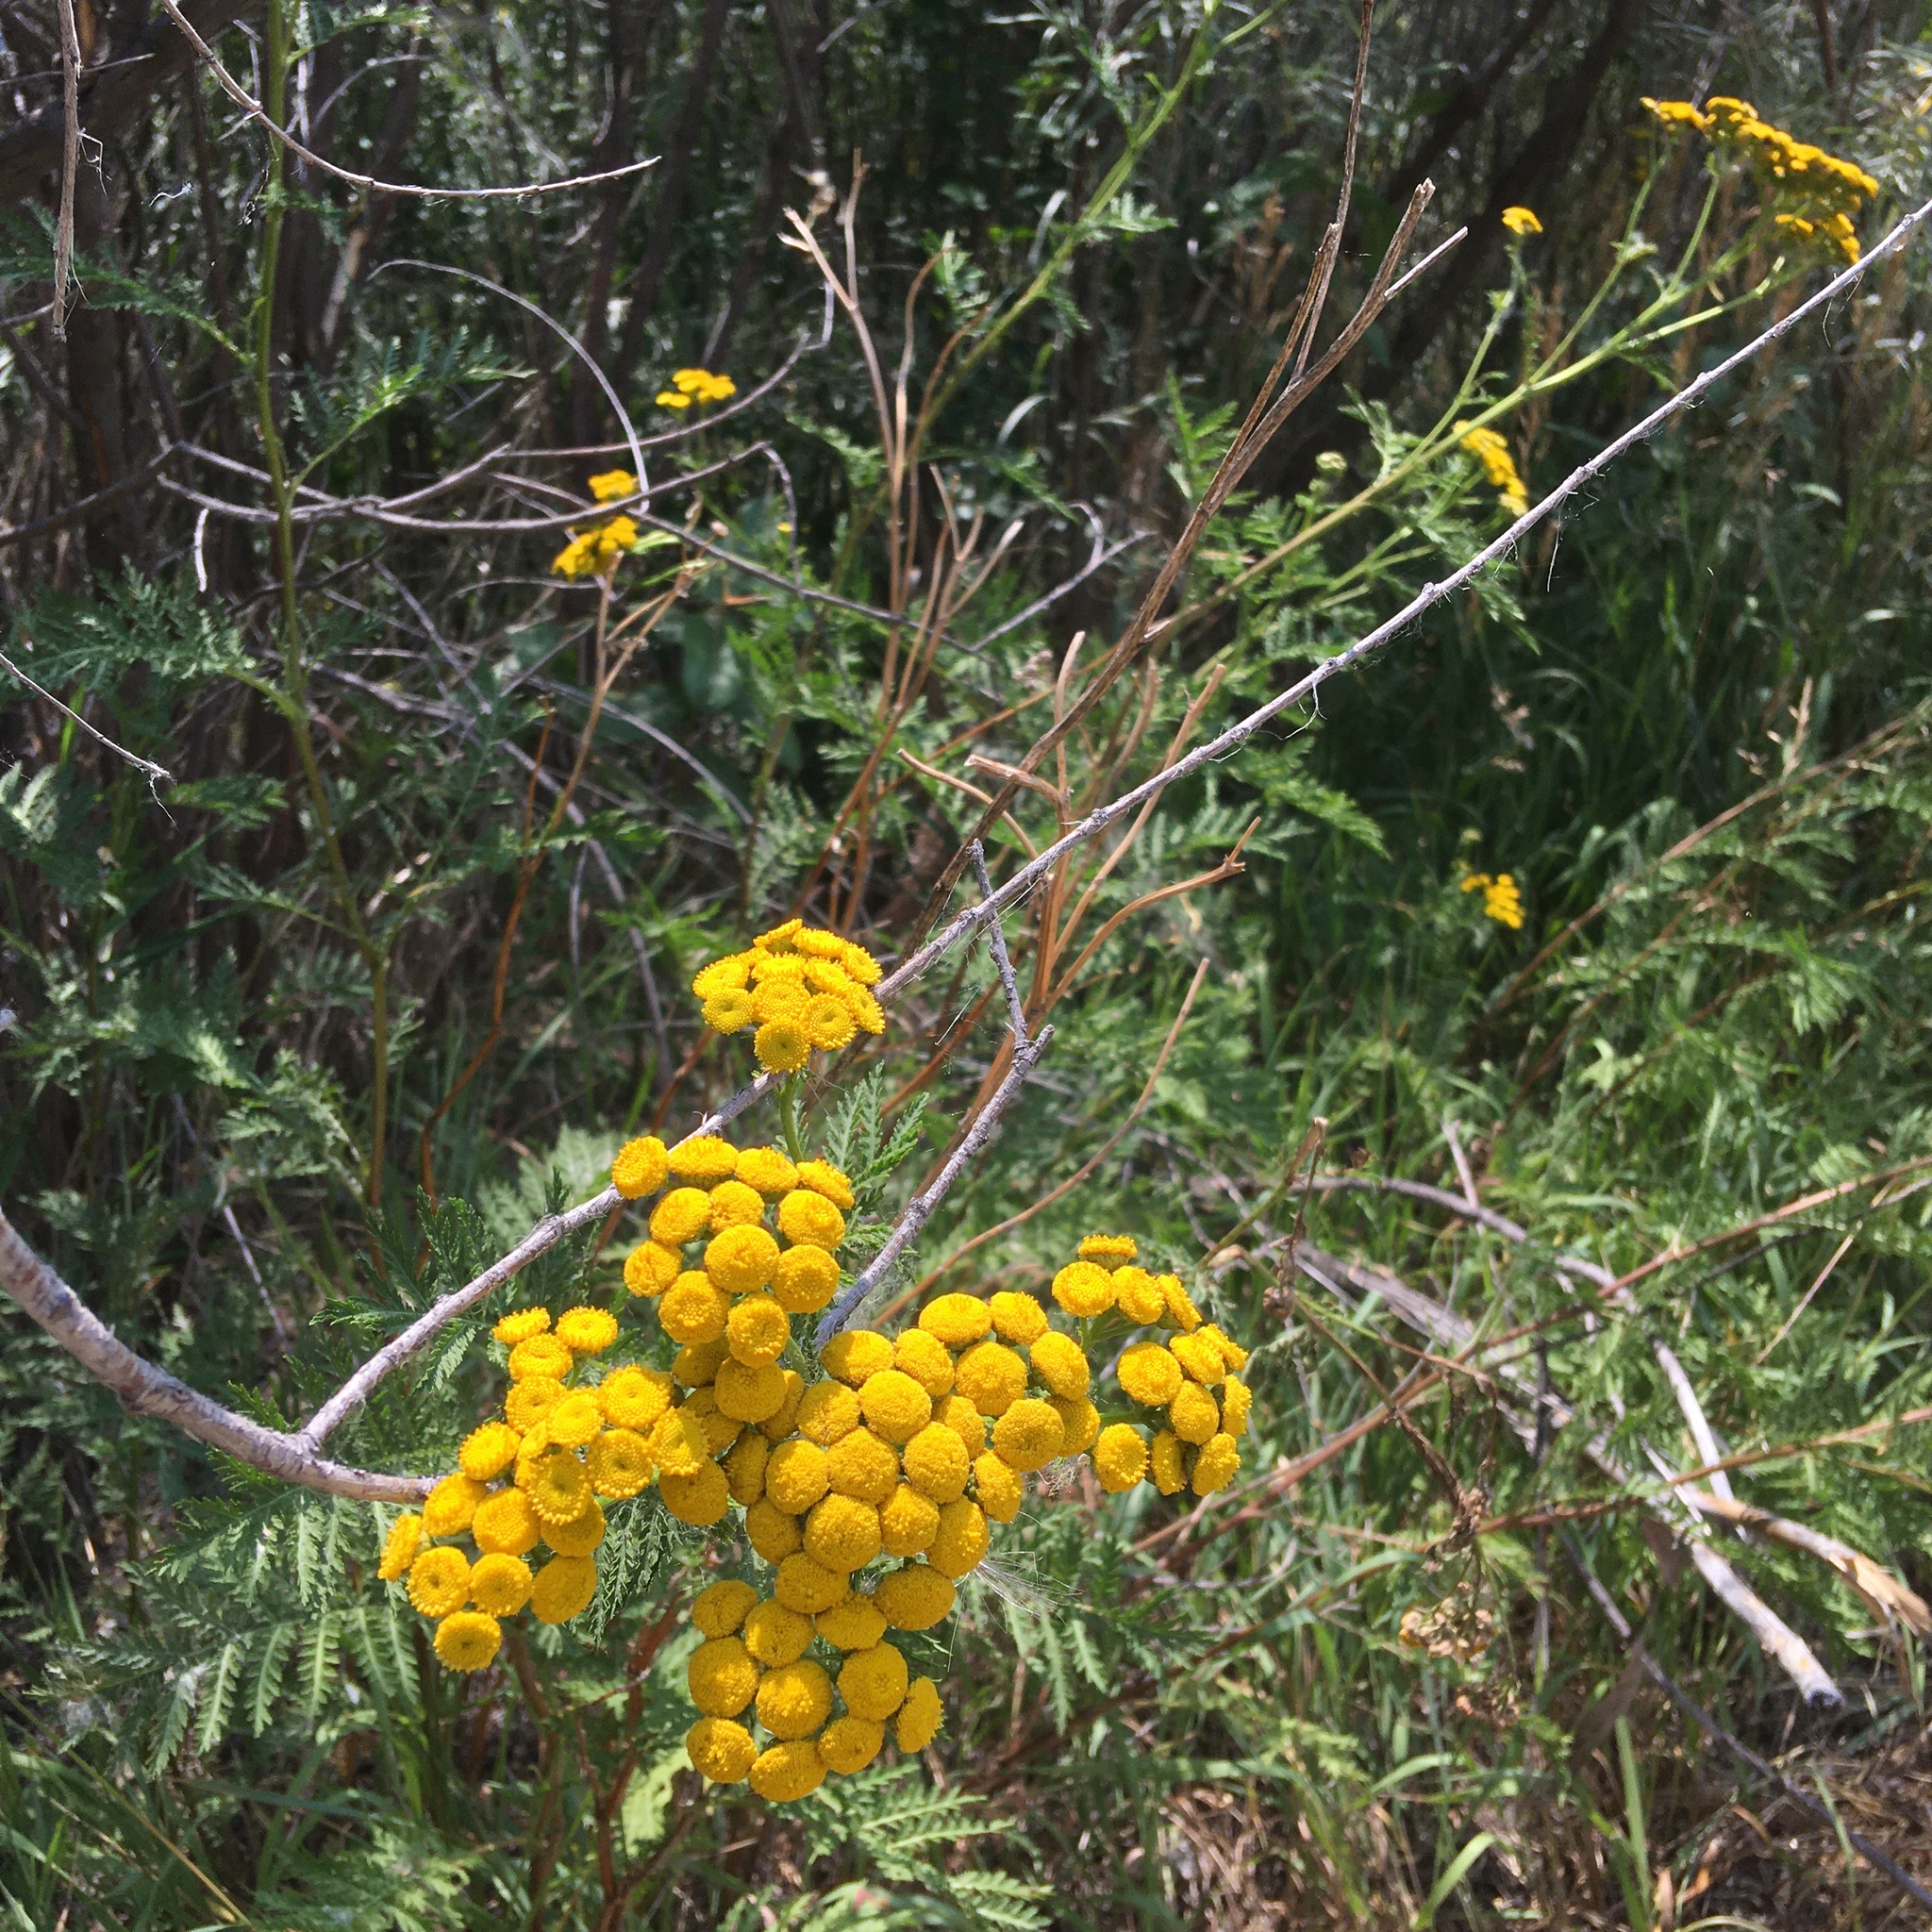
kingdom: Plantae
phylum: Tracheophyta
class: Magnoliopsida
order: Asterales
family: Asteraceae
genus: Tanacetum
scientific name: Tanacetum vulgare
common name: Common tansy
